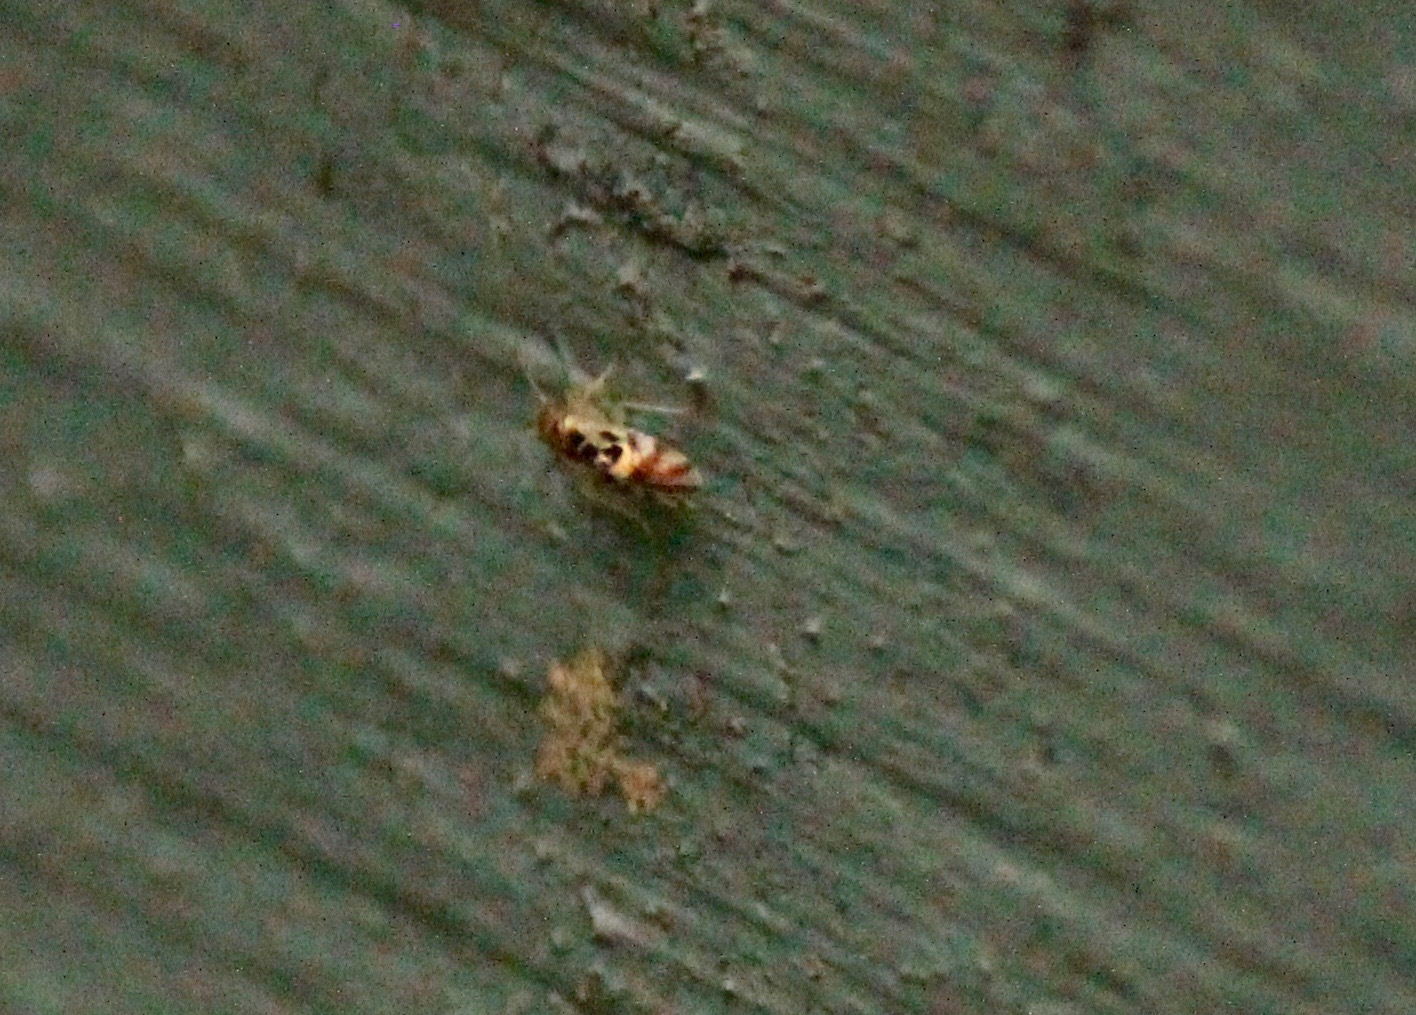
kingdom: Animalia
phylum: Arthropoda
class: Insecta
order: Psocodea
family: Stenopsocidae
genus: Graphopsocus
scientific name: Graphopsocus cruciatus
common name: Lizard bark louse
